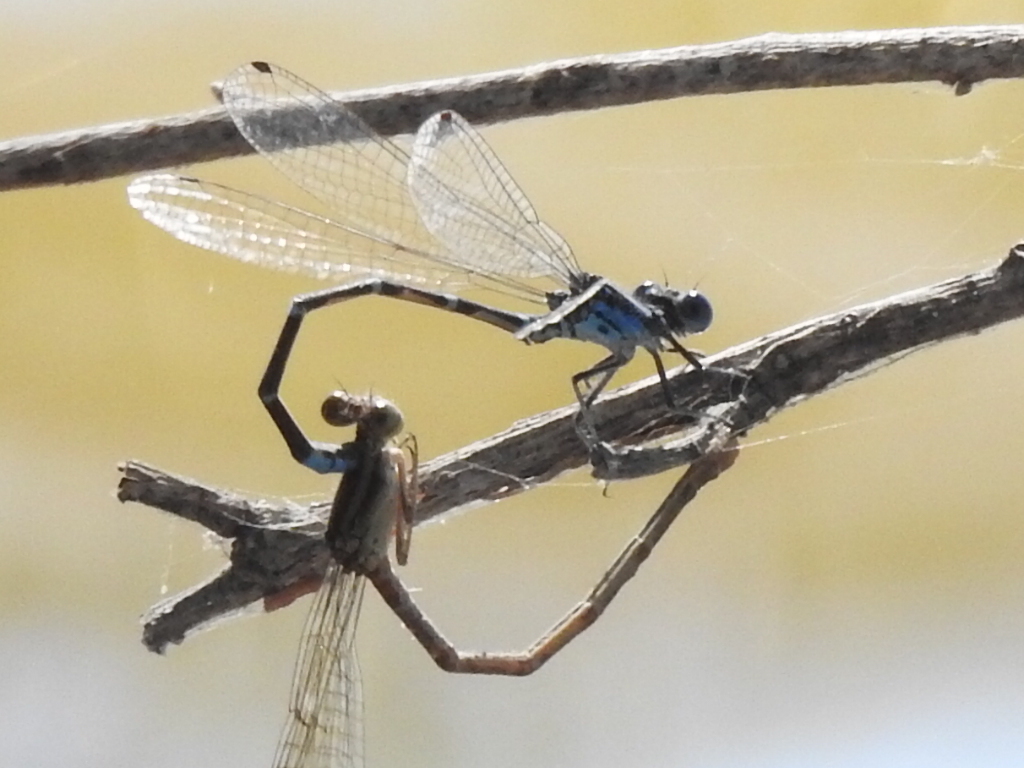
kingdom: Animalia
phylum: Arthropoda
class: Insecta
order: Odonata
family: Coenagrionidae
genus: Argia
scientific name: Argia sedula
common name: Blue-ringed dancer
